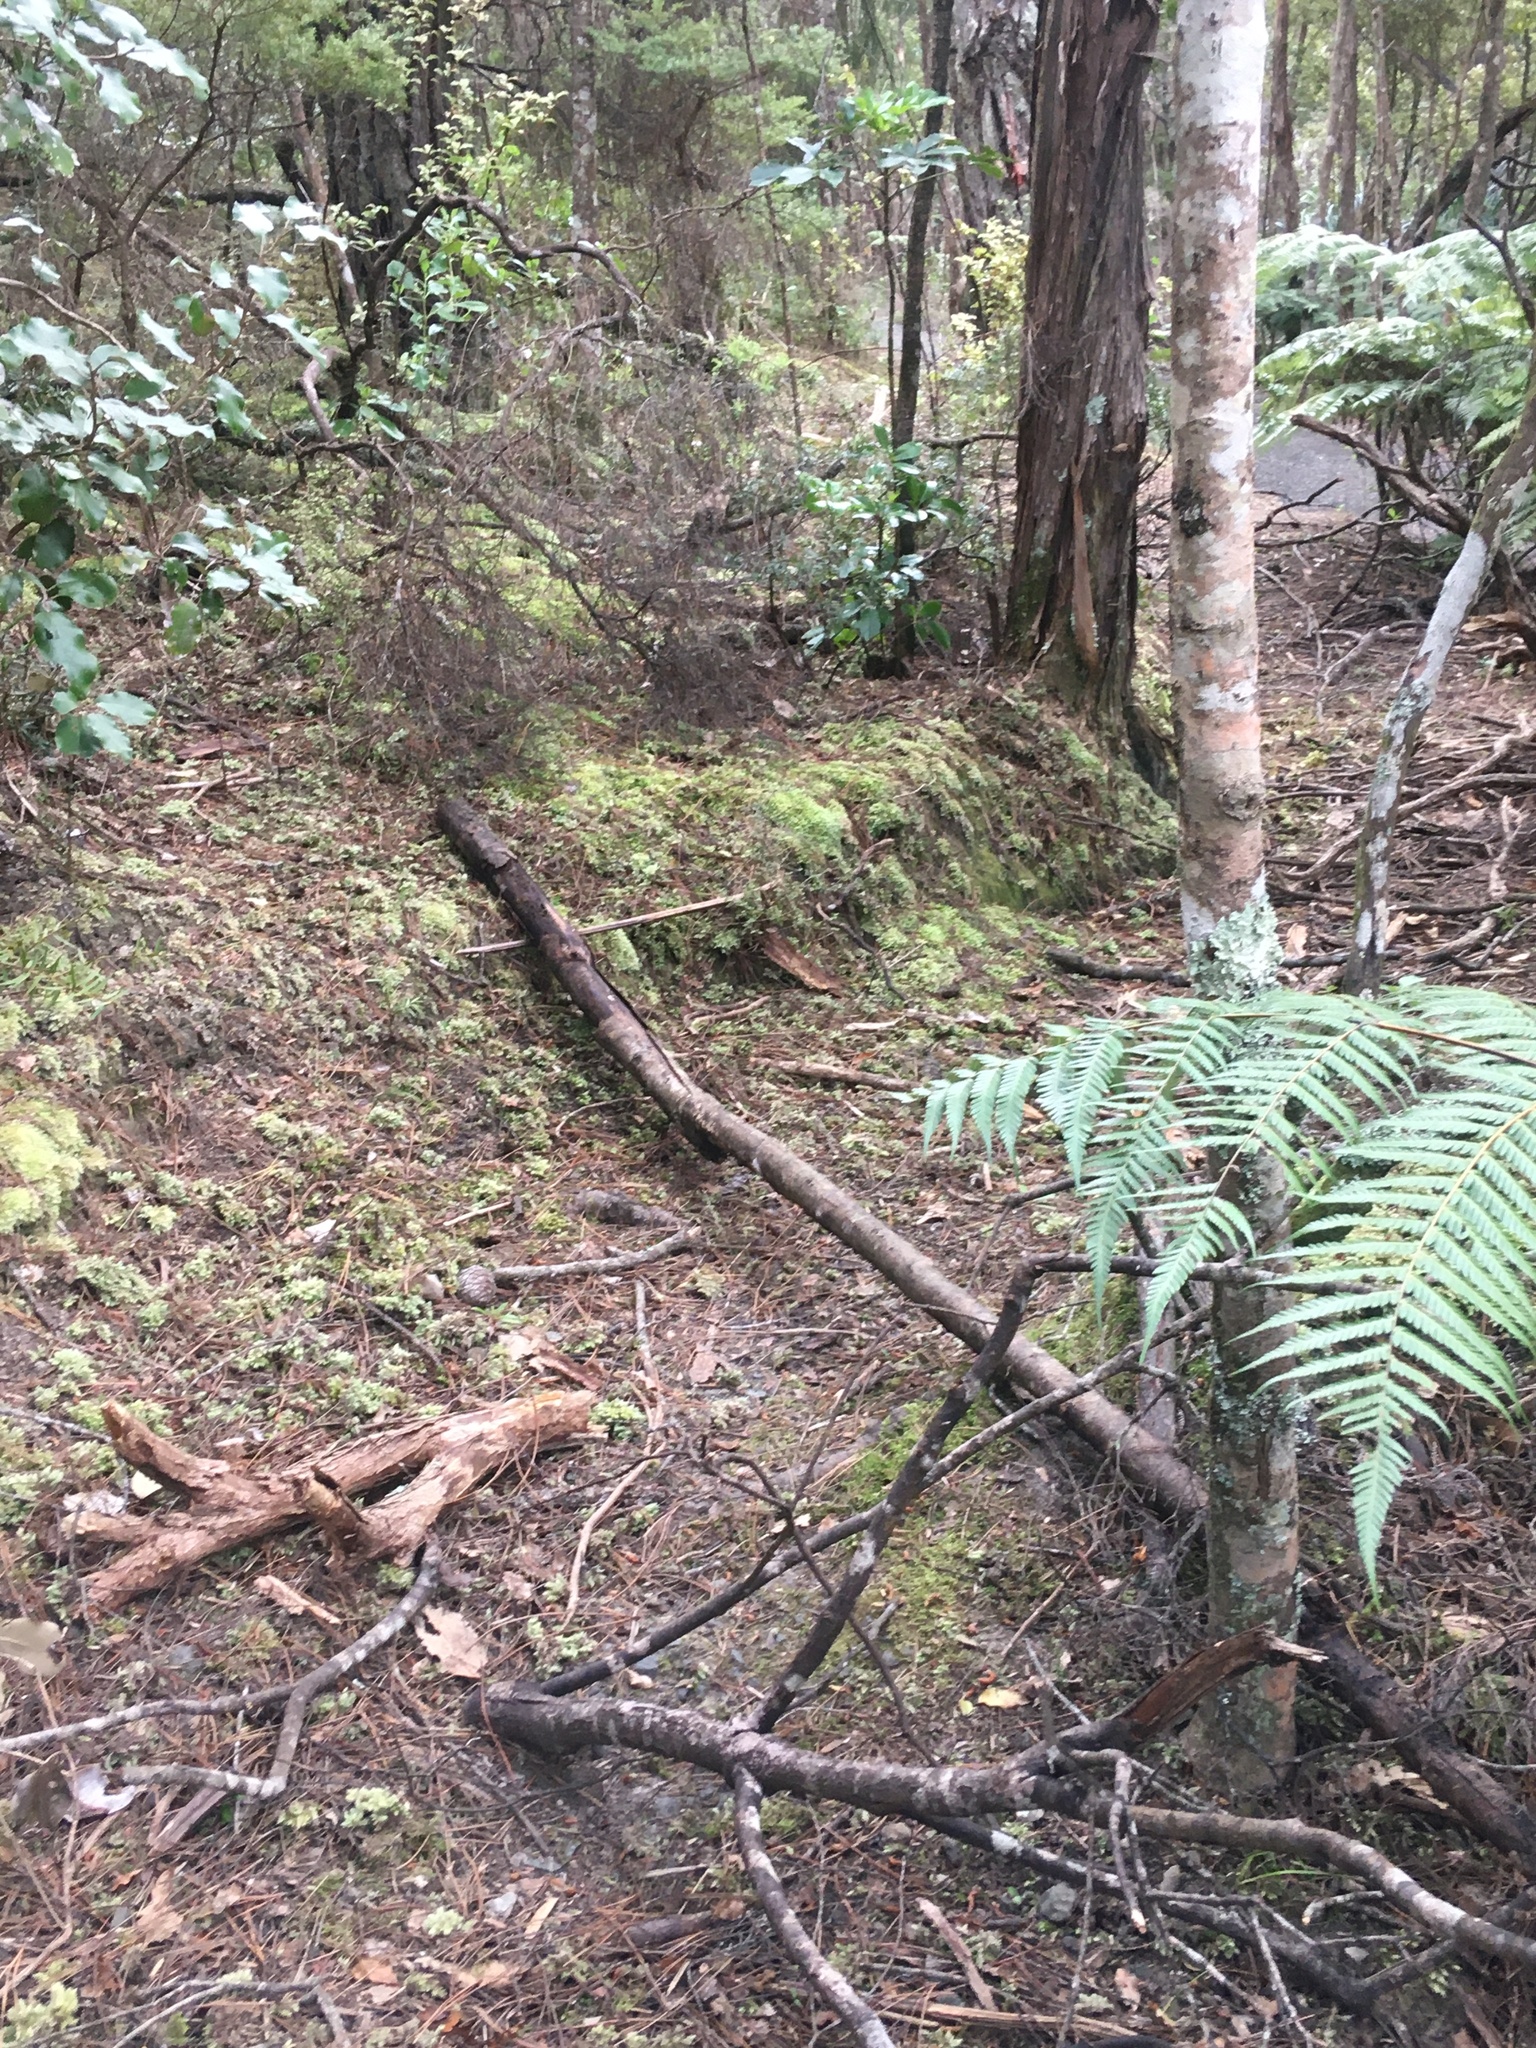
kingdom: Plantae
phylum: Bryophyta
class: Bryopsida
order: Dicranales
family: Leucobryaceae
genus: Leucobryum
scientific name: Leucobryum javense
